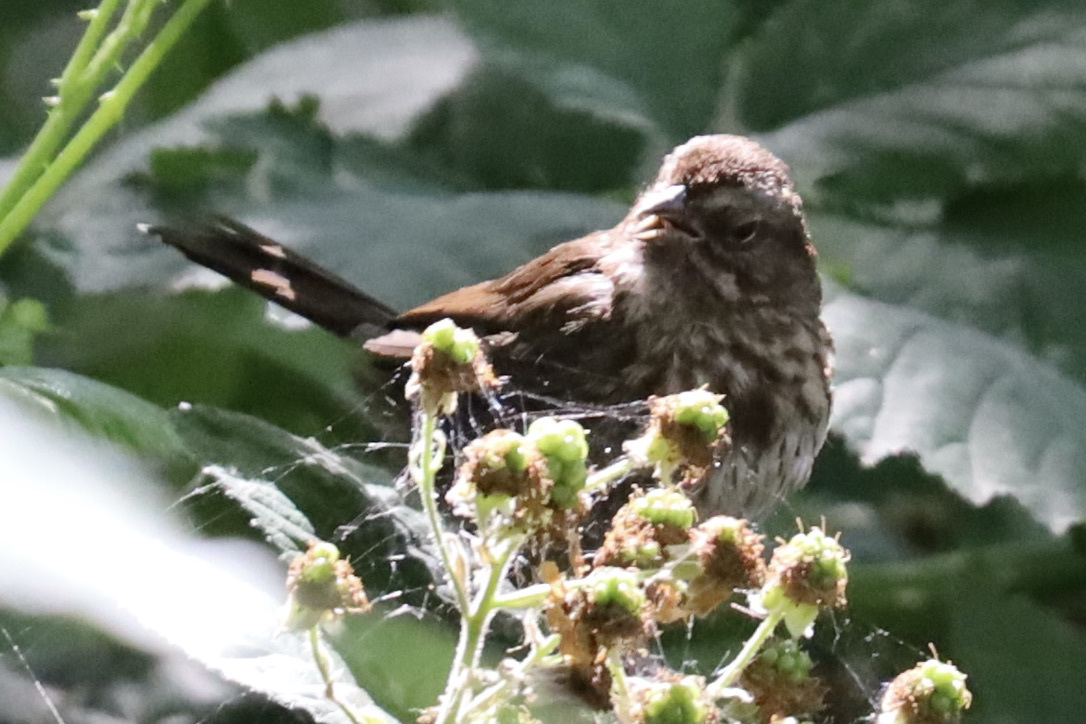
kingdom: Animalia
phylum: Chordata
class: Aves
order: Passeriformes
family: Passerellidae
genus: Melospiza
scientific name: Melospiza melodia
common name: Song sparrow
